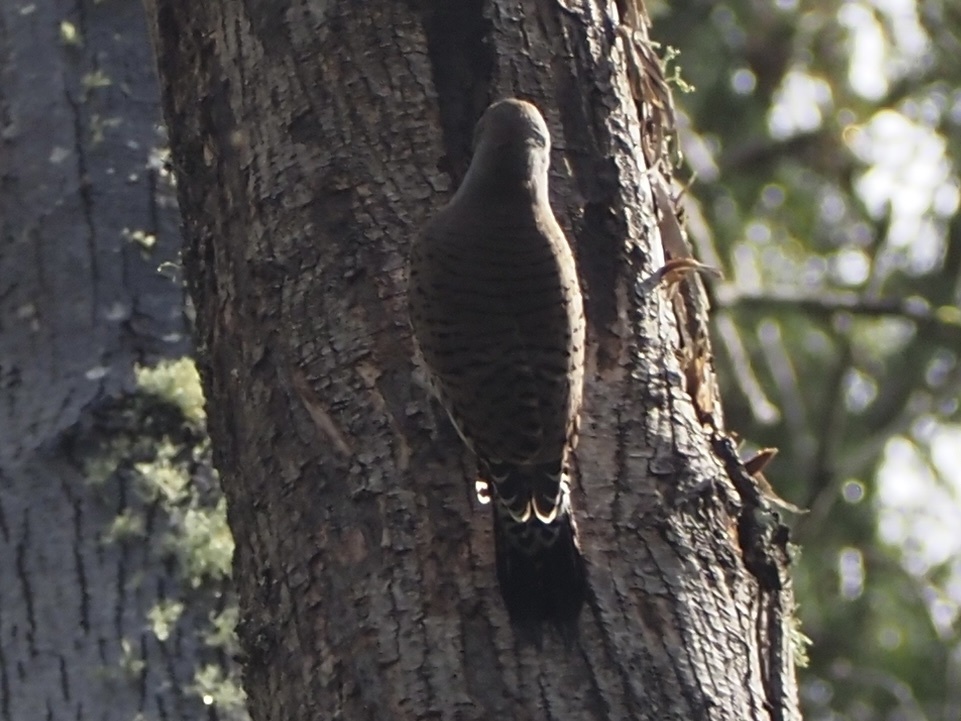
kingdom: Animalia
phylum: Chordata
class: Aves
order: Piciformes
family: Picidae
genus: Colaptes
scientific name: Colaptes auratus
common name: Northern flicker
